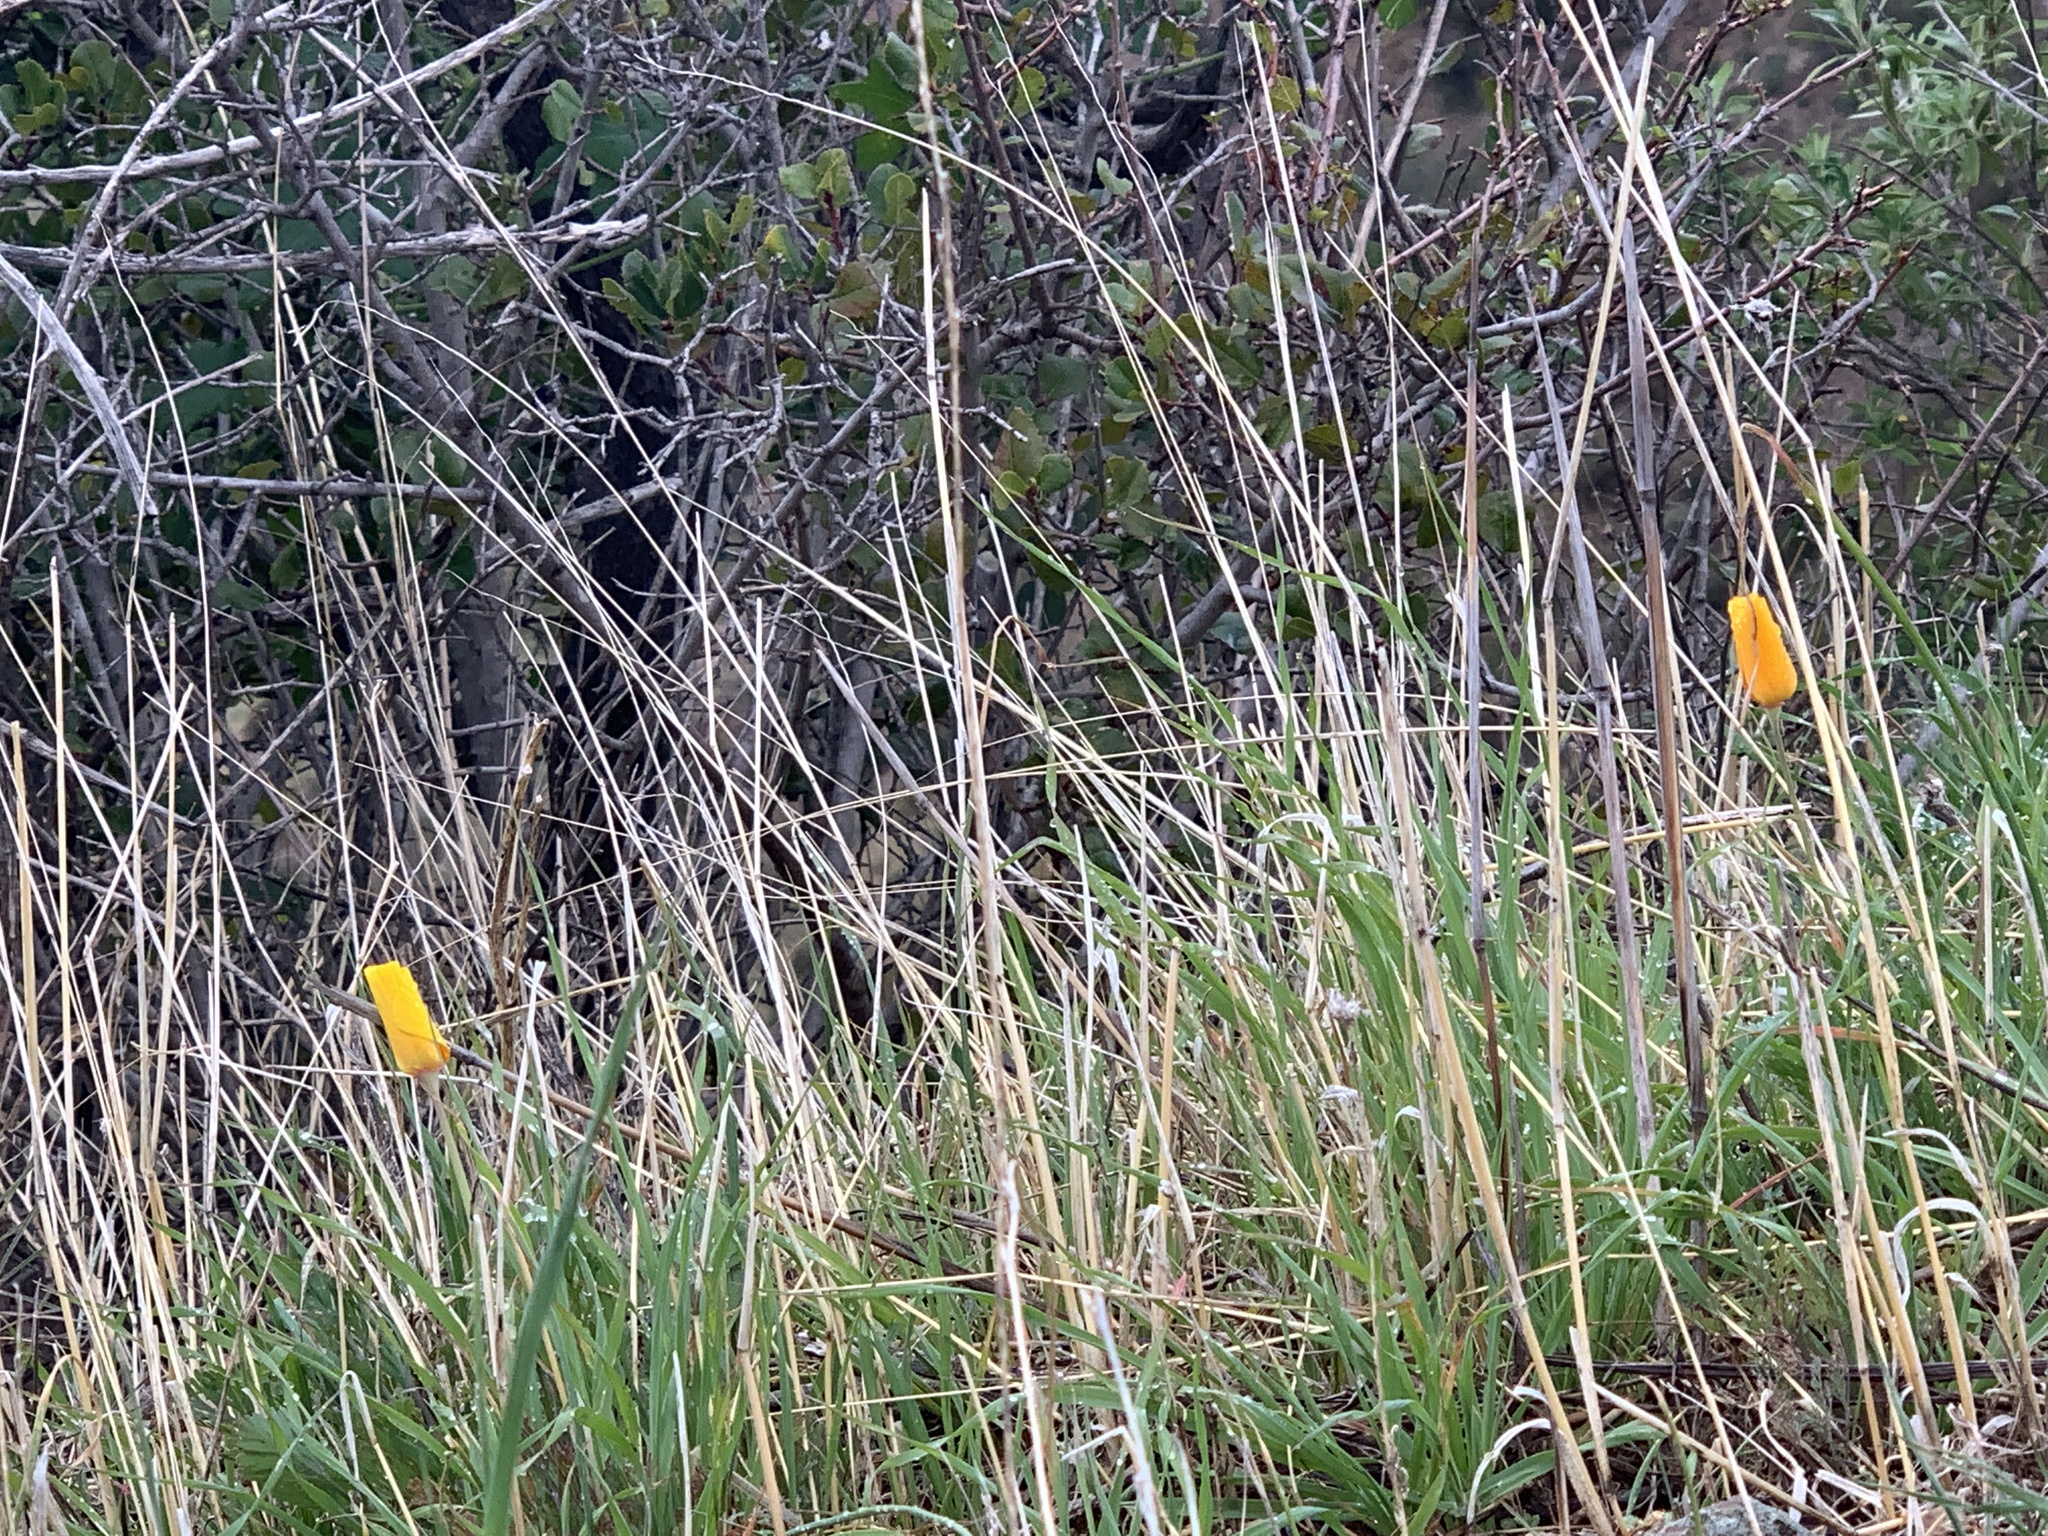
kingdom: Plantae
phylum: Tracheophyta
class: Magnoliopsida
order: Ranunculales
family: Papaveraceae
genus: Eschscholzia
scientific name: Eschscholzia californica
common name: California poppy
